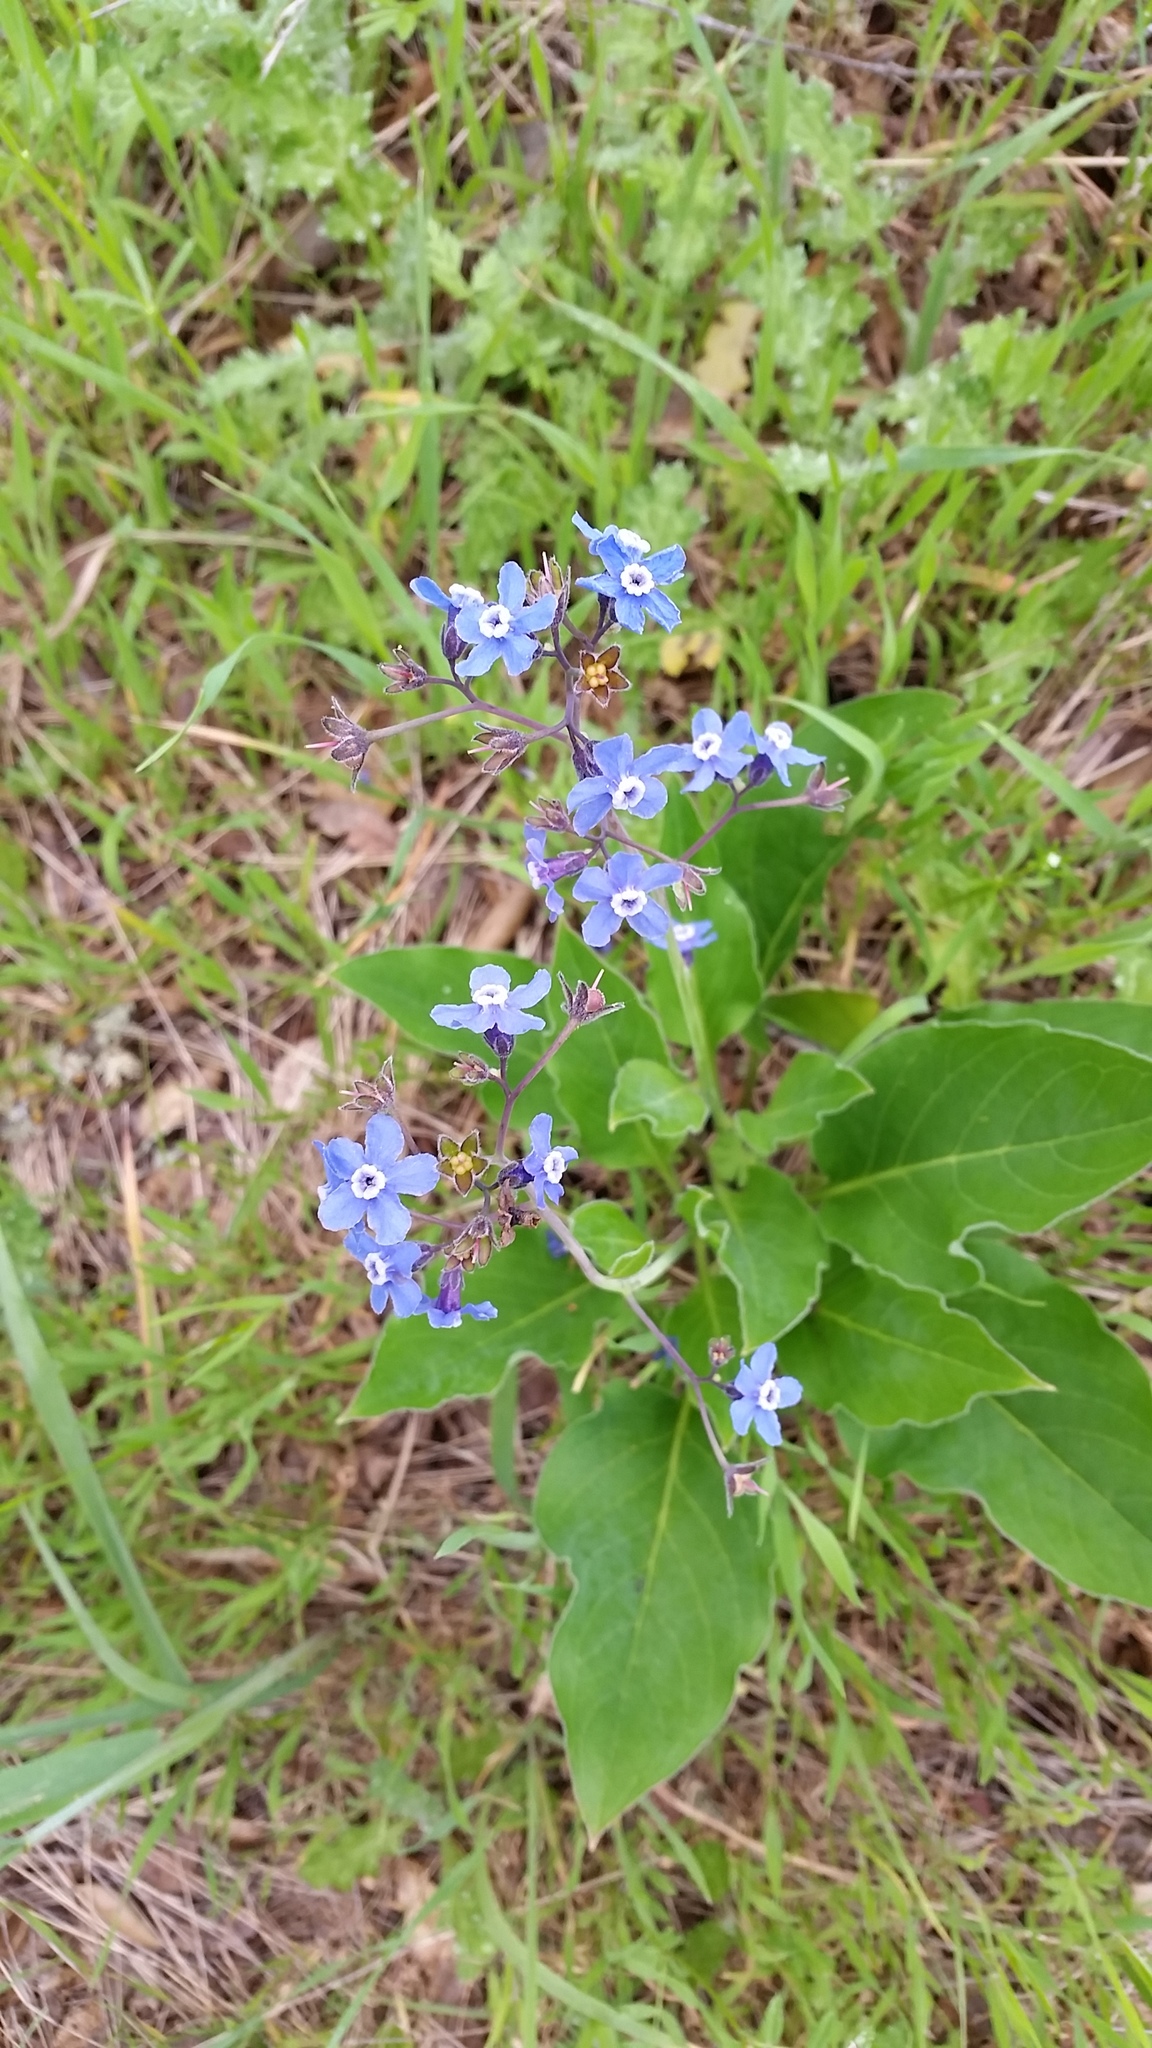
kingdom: Plantae
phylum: Tracheophyta
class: Magnoliopsida
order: Boraginales
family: Boraginaceae
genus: Adelinia
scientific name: Adelinia grande
